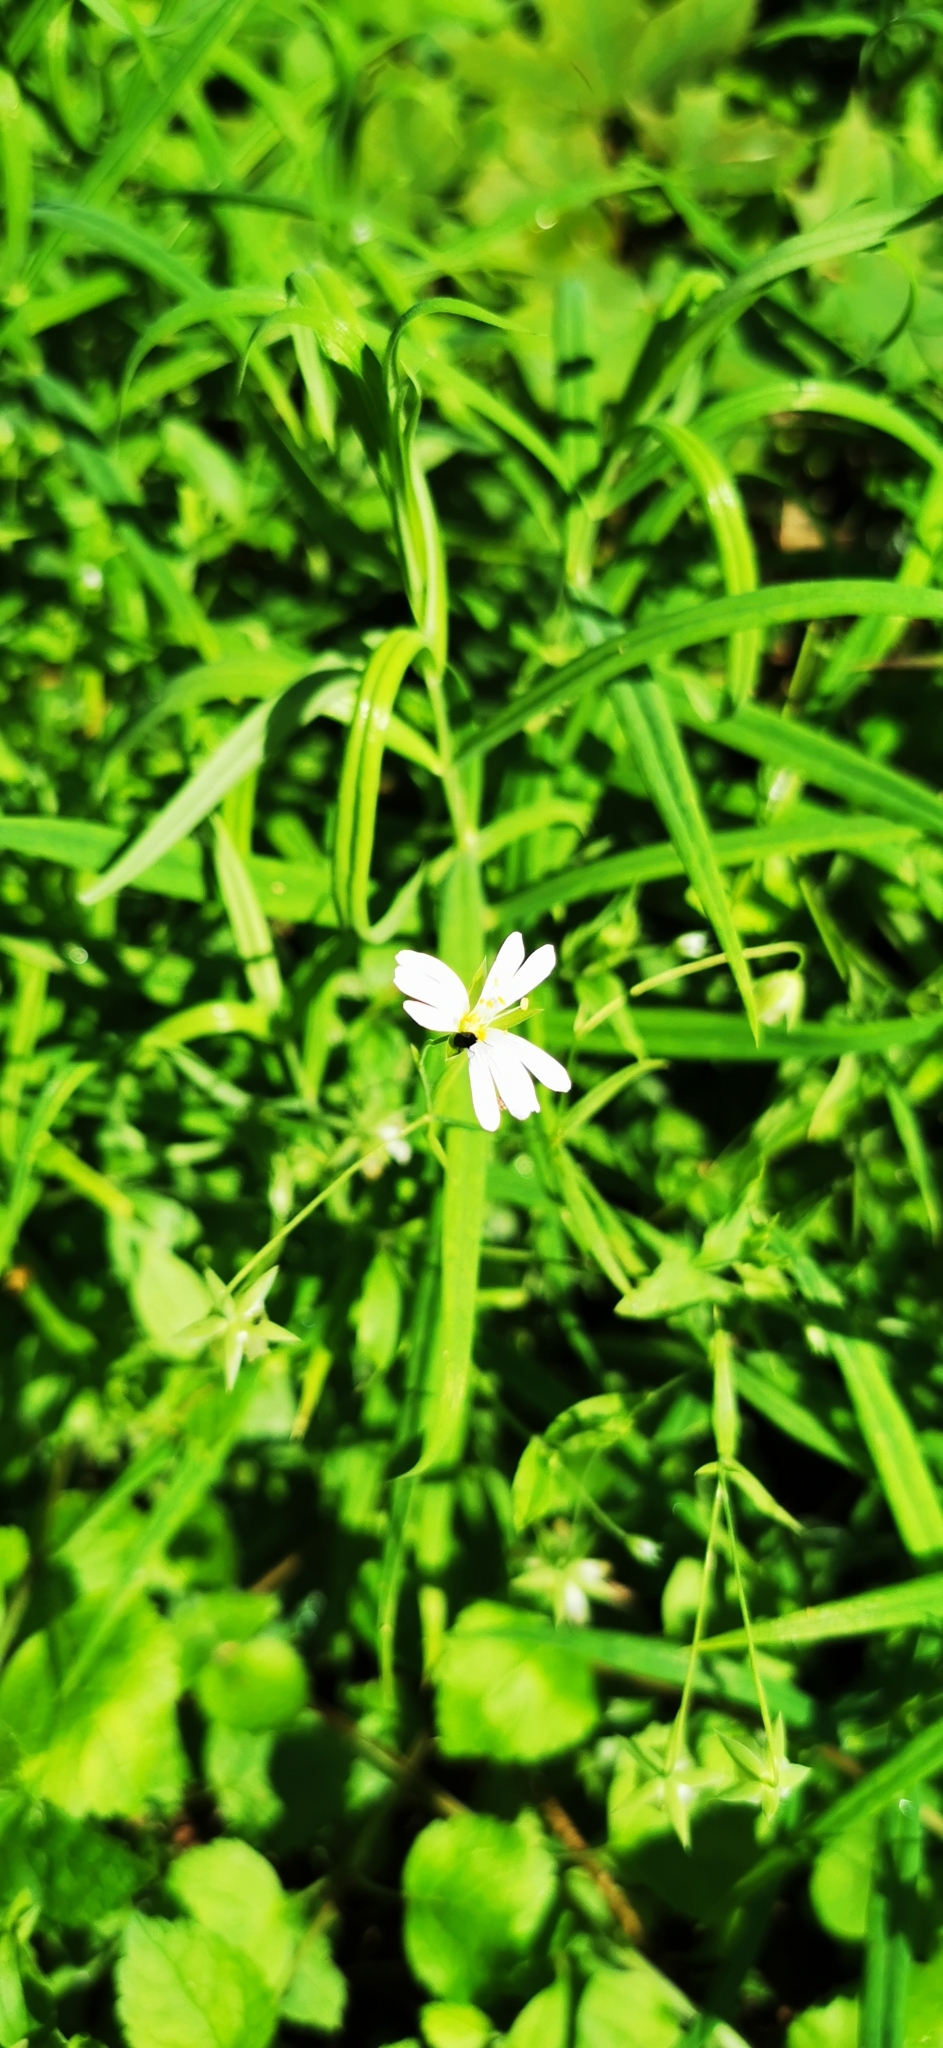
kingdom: Plantae
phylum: Tracheophyta
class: Magnoliopsida
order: Caryophyllales
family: Caryophyllaceae
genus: Rabelera
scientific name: Rabelera holostea
